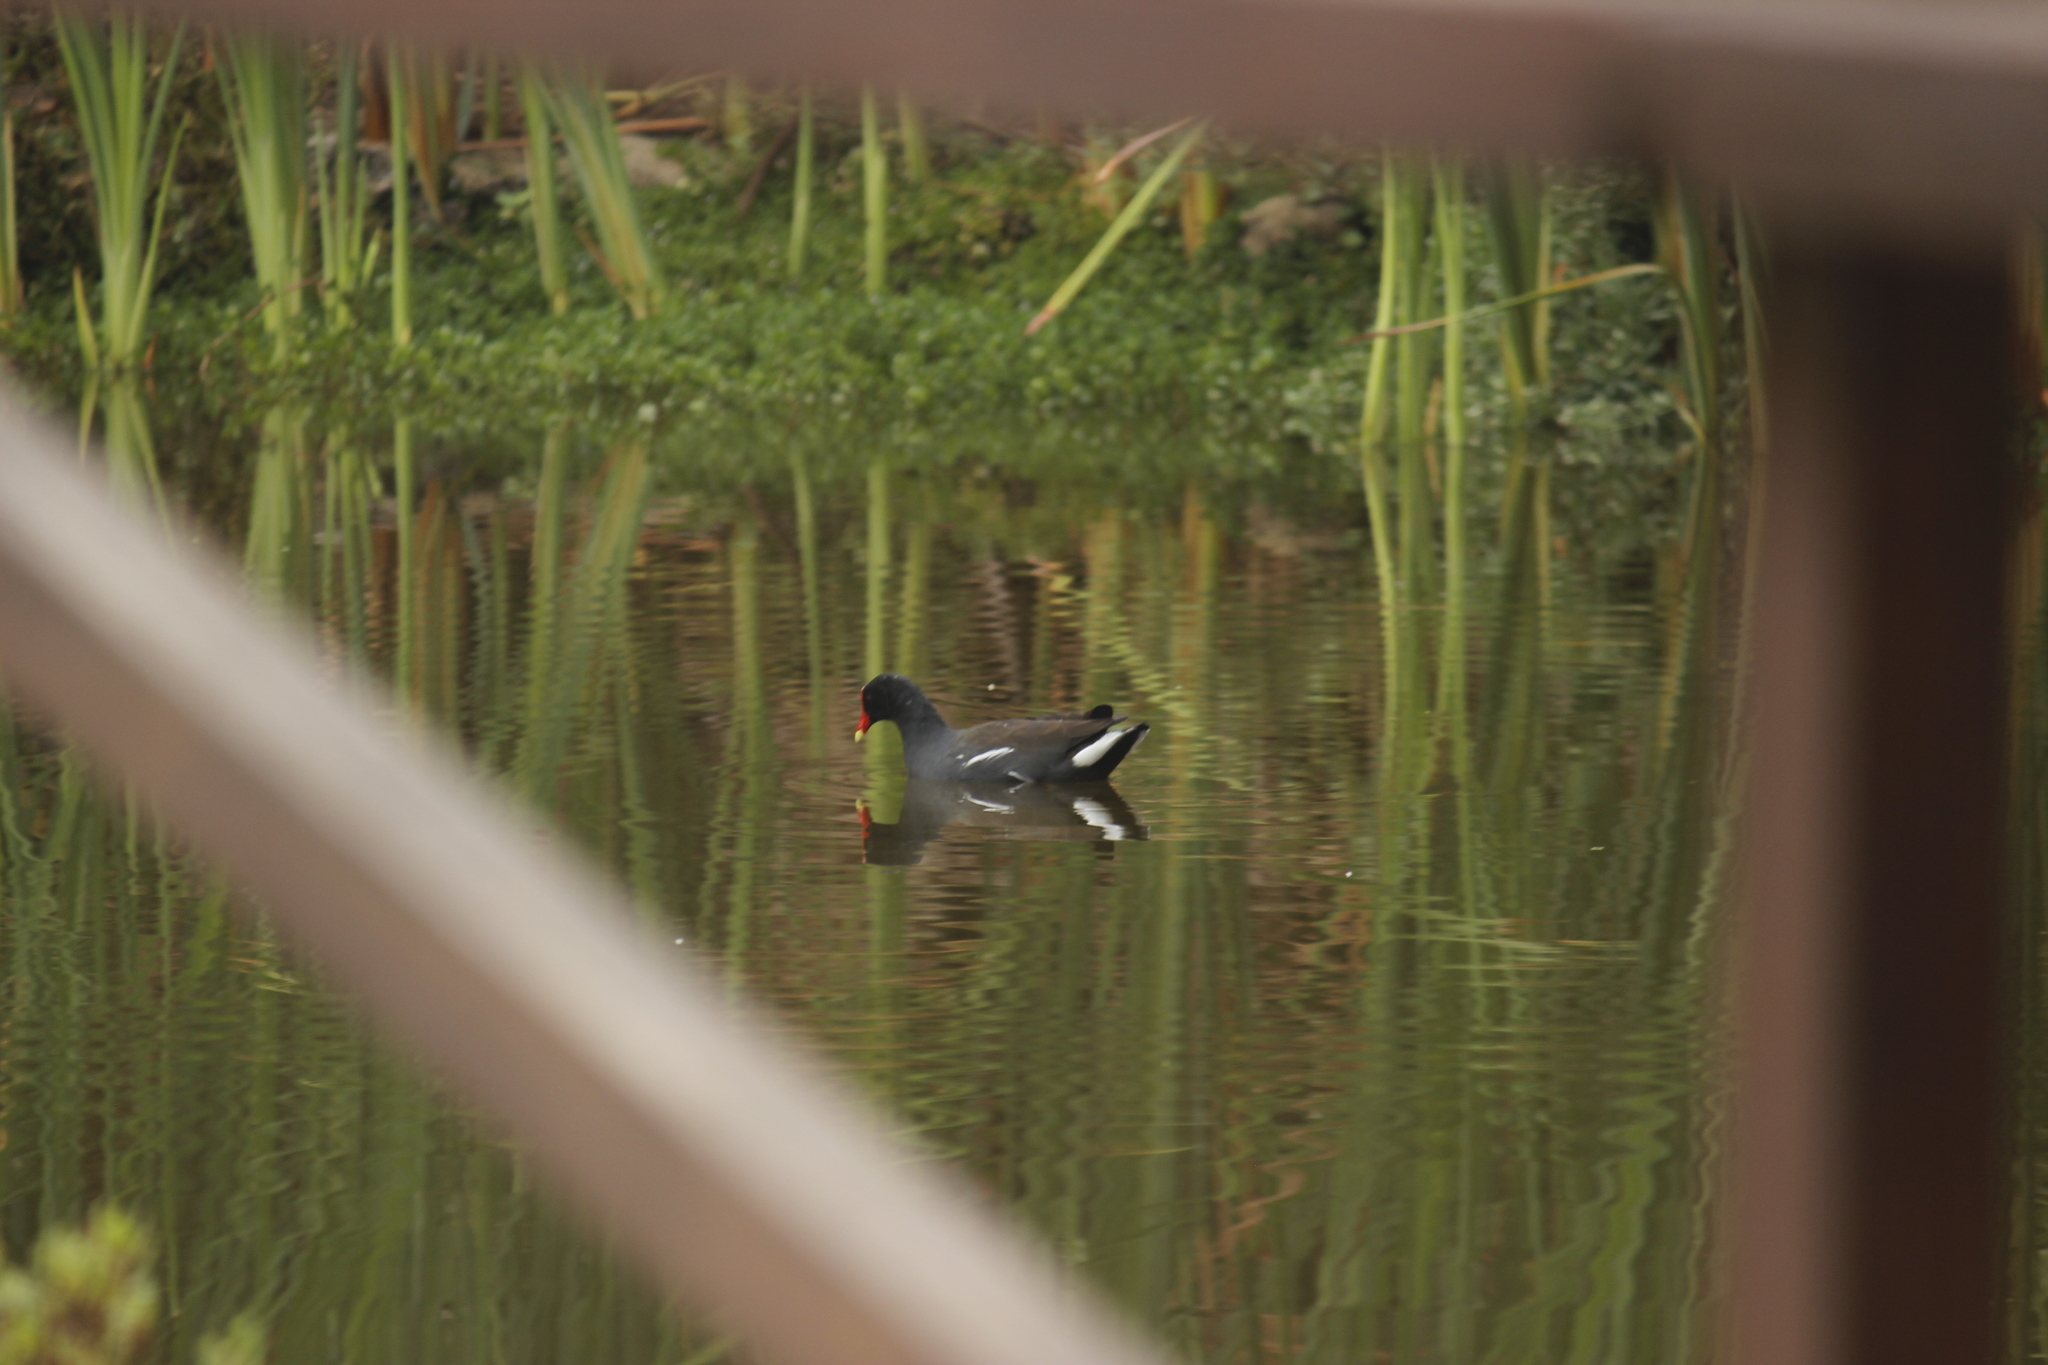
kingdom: Animalia
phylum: Chordata
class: Aves
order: Gruiformes
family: Rallidae
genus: Gallinula
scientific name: Gallinula chloropus
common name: Common moorhen
